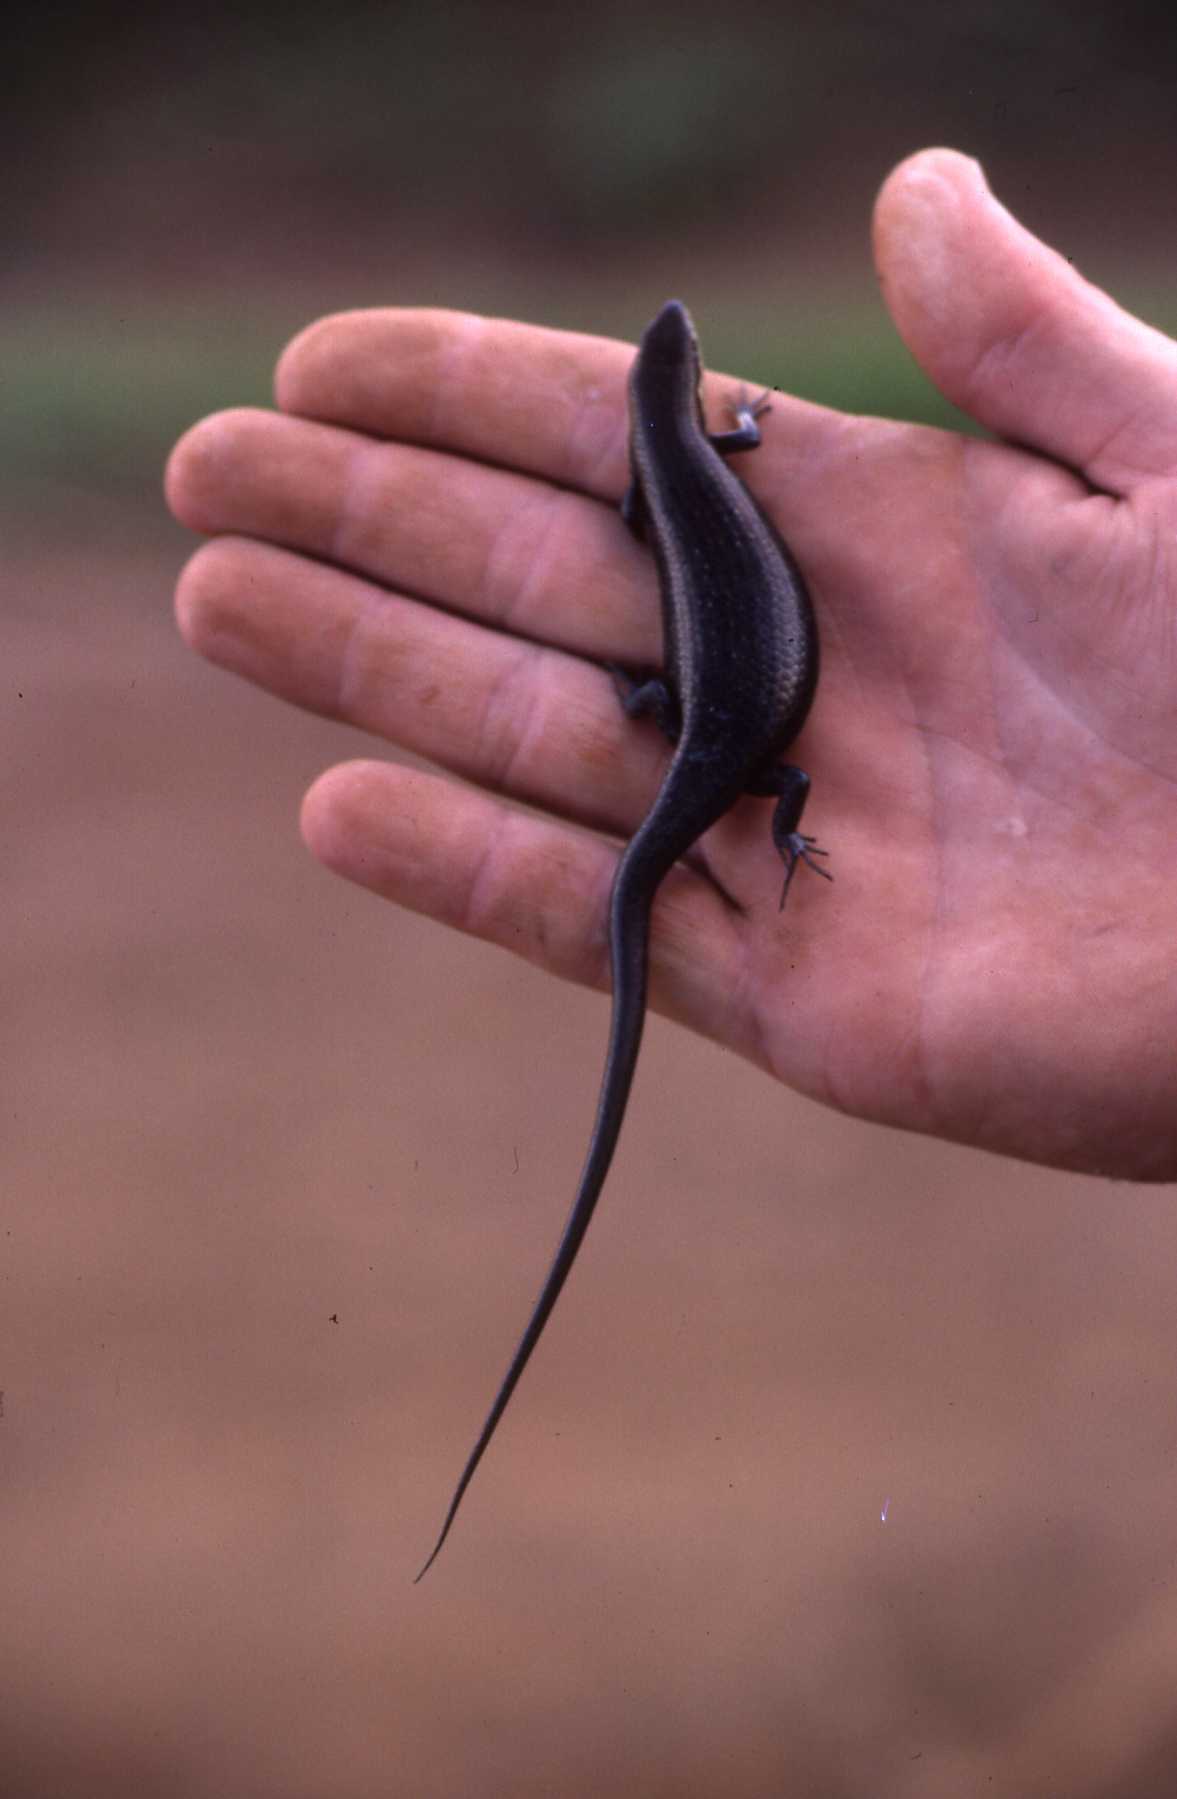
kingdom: Animalia
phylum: Chordata
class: Squamata
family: Scincidae
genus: Trachylepis
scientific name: Trachylepis varia
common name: Eastern variable skink
